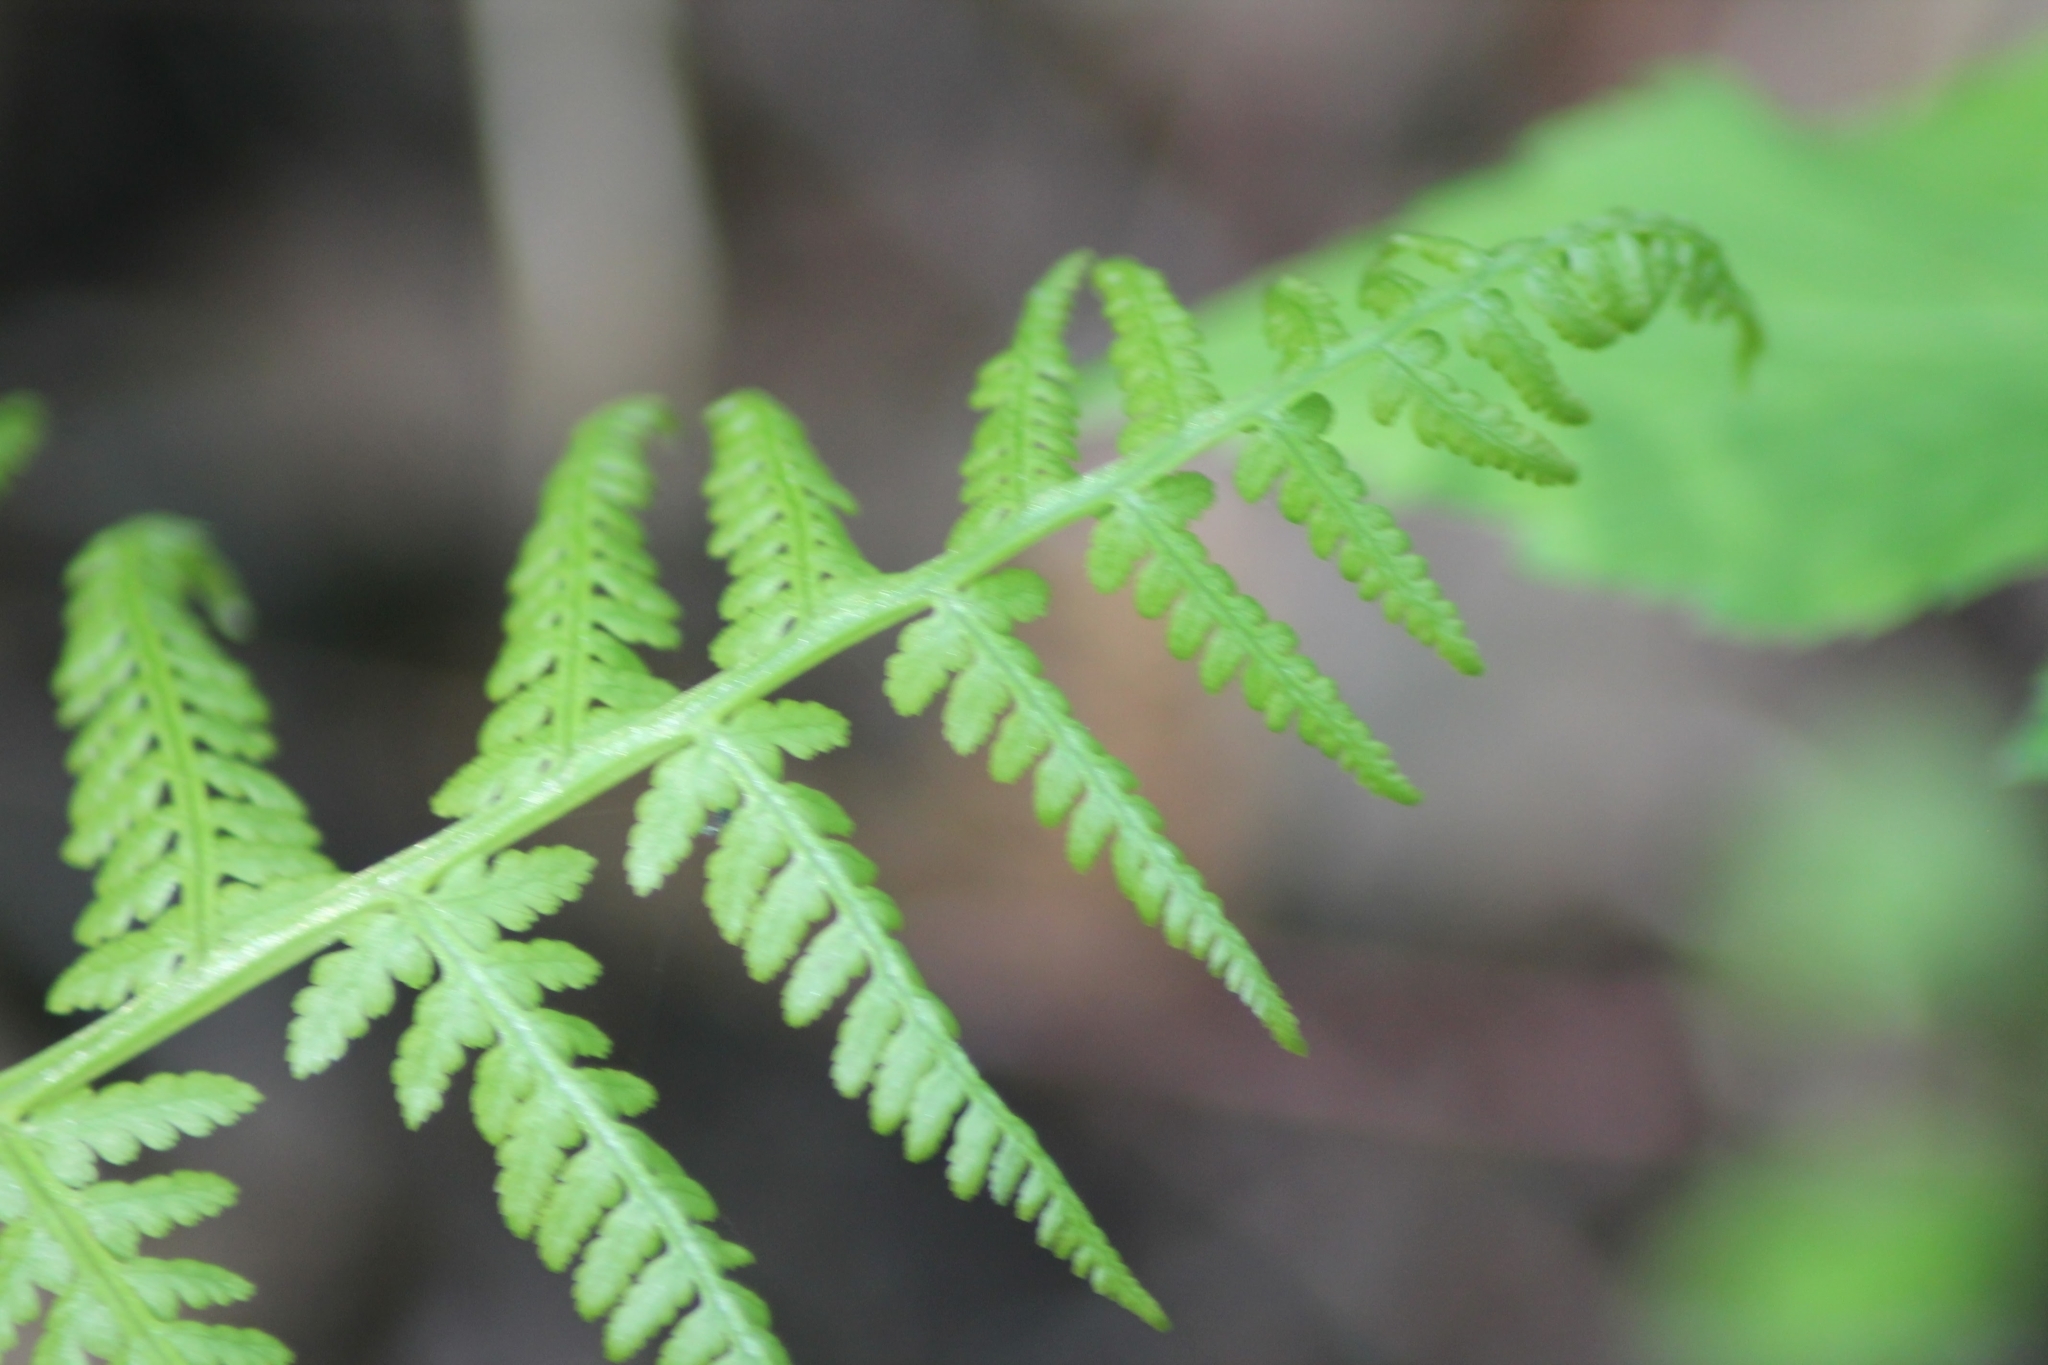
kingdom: Plantae
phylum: Tracheophyta
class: Polypodiopsida
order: Polypodiales
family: Athyriaceae
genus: Athyrium
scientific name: Athyrium filix-femina
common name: Lady fern
